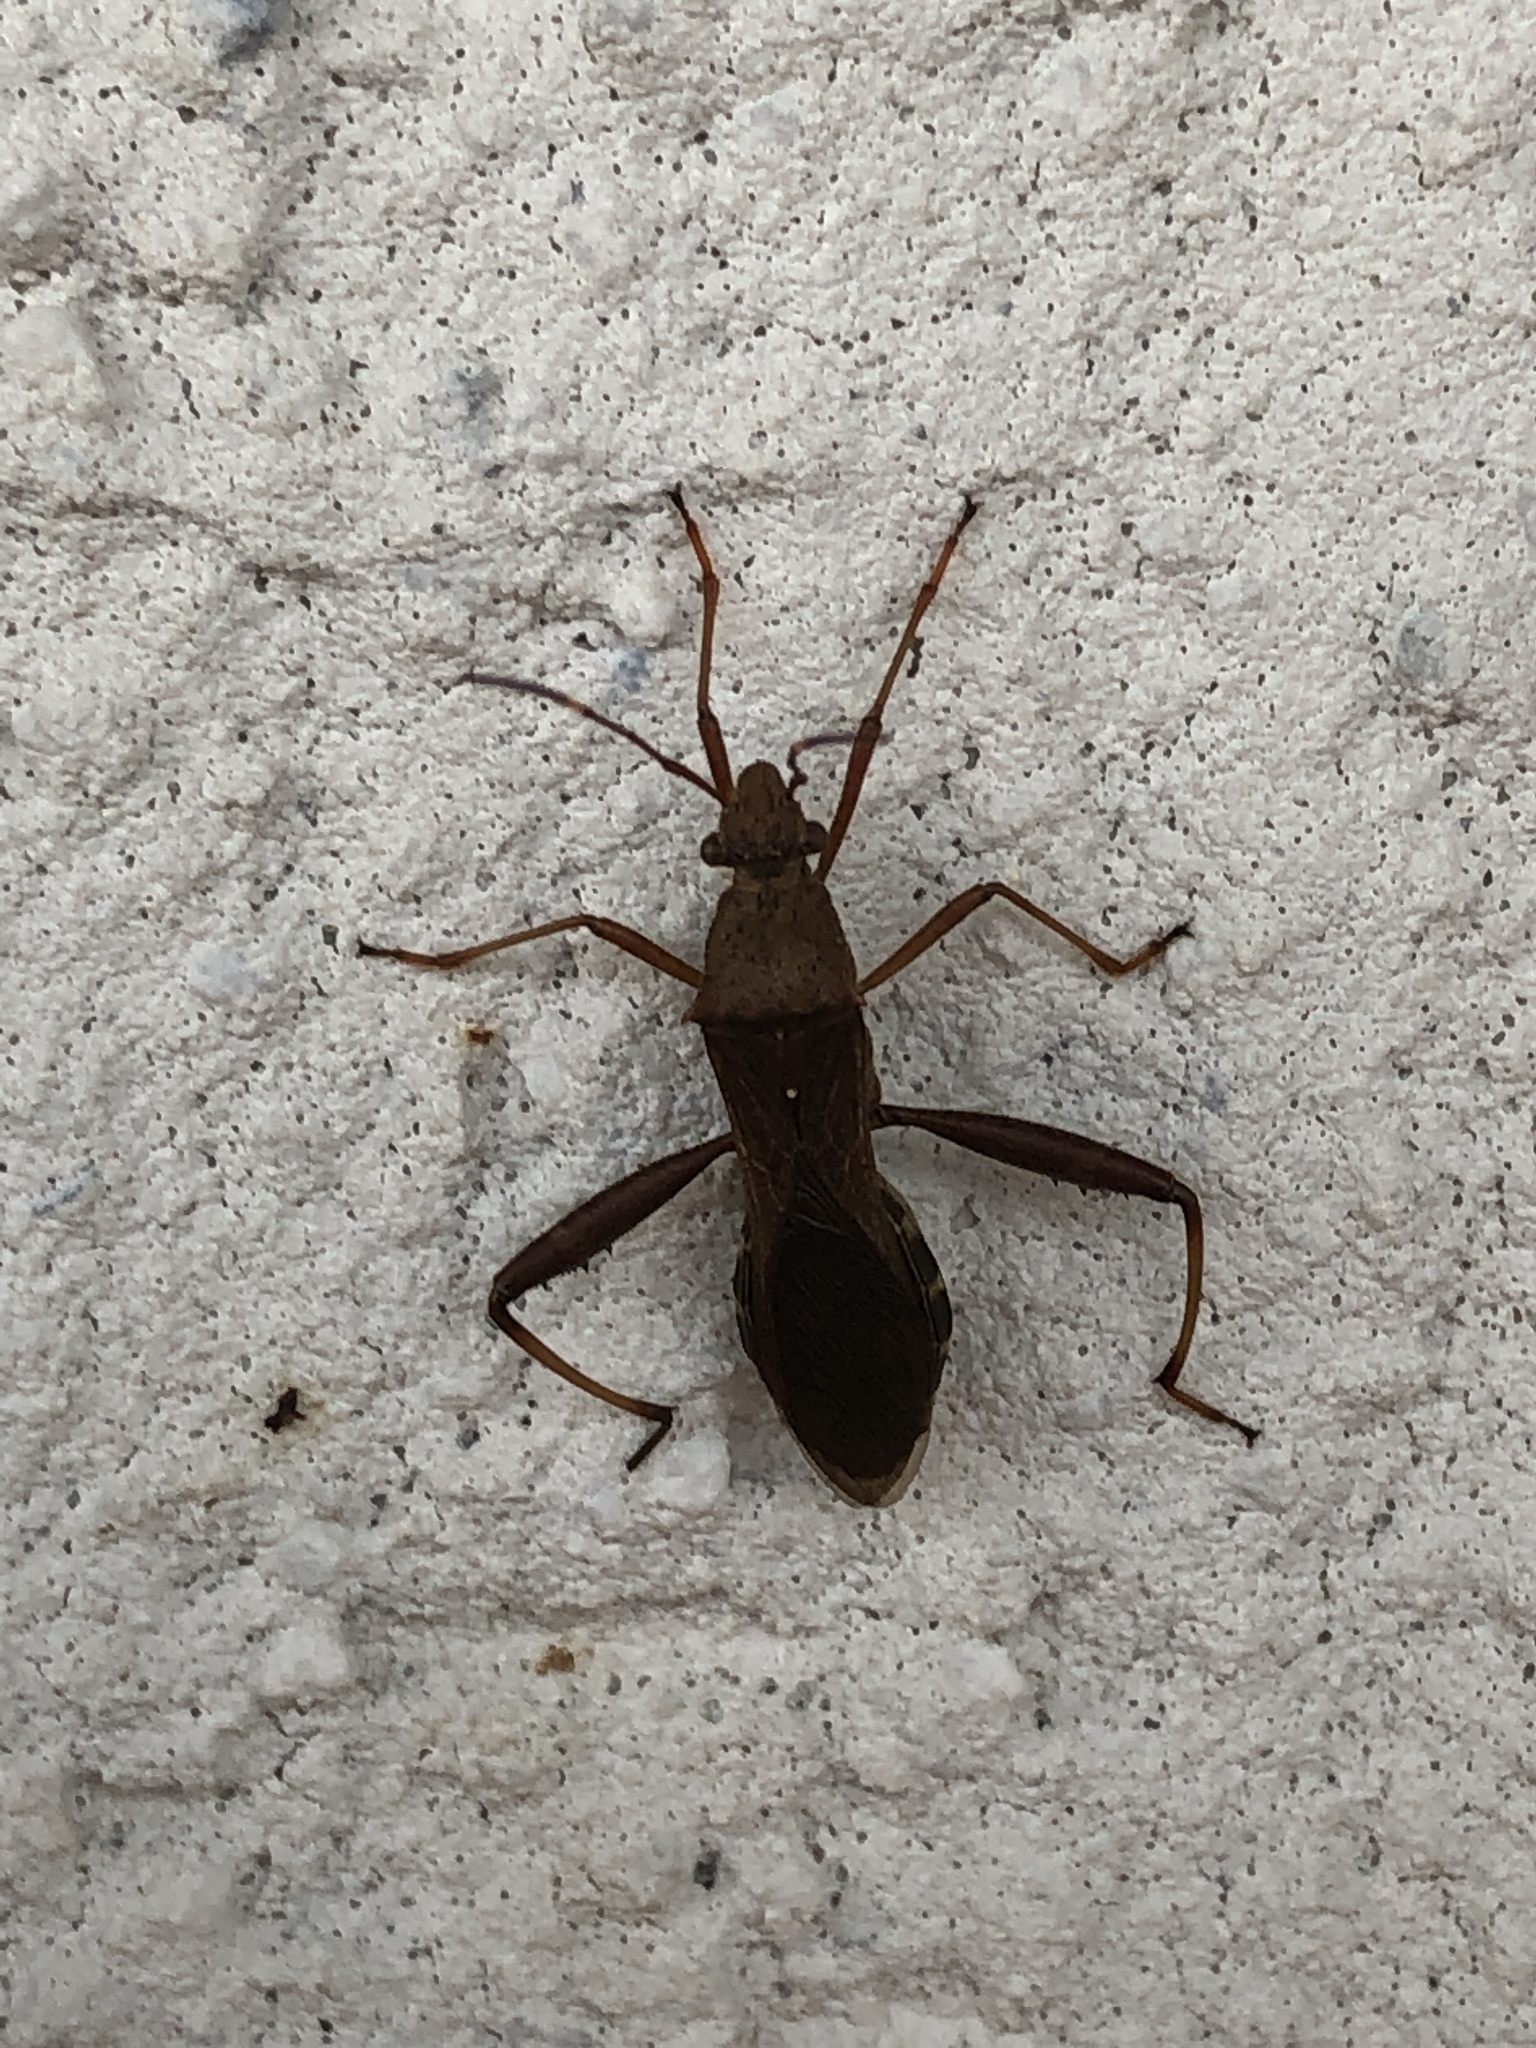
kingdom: Animalia
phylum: Arthropoda
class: Insecta
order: Hemiptera
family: Alydidae
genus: Riptortus
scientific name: Riptortus pedestris
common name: Bean bug
